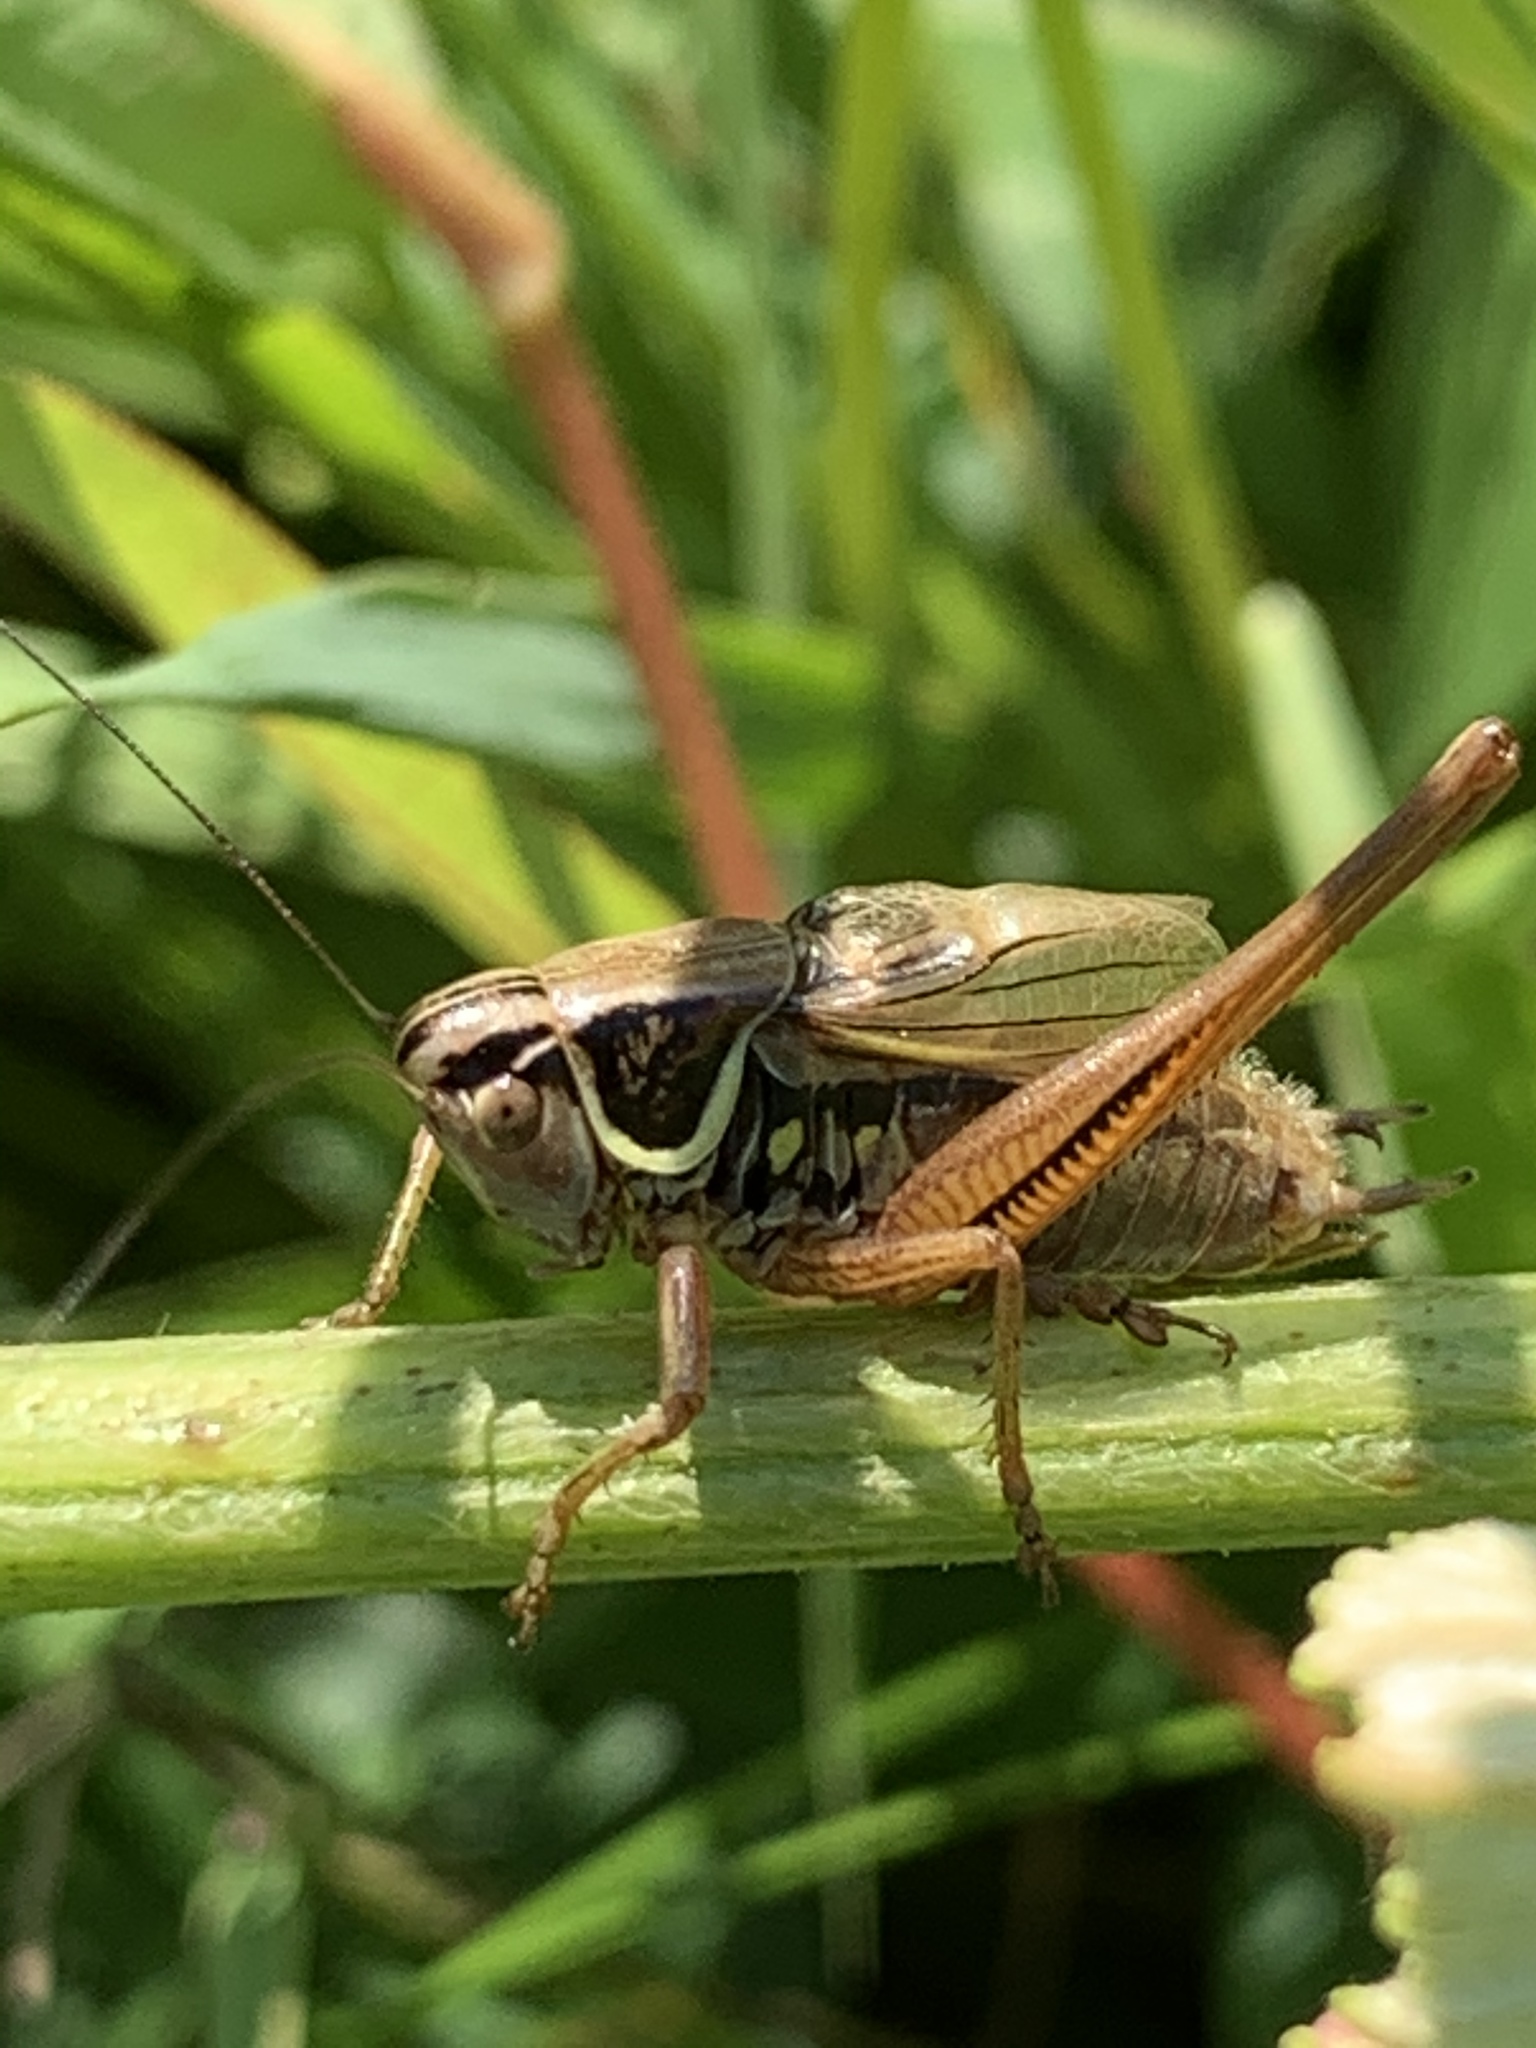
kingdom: Animalia
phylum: Arthropoda
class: Insecta
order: Orthoptera
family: Tettigoniidae
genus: Roeseliana
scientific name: Roeseliana roeselii
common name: Roesel's bush cricket
